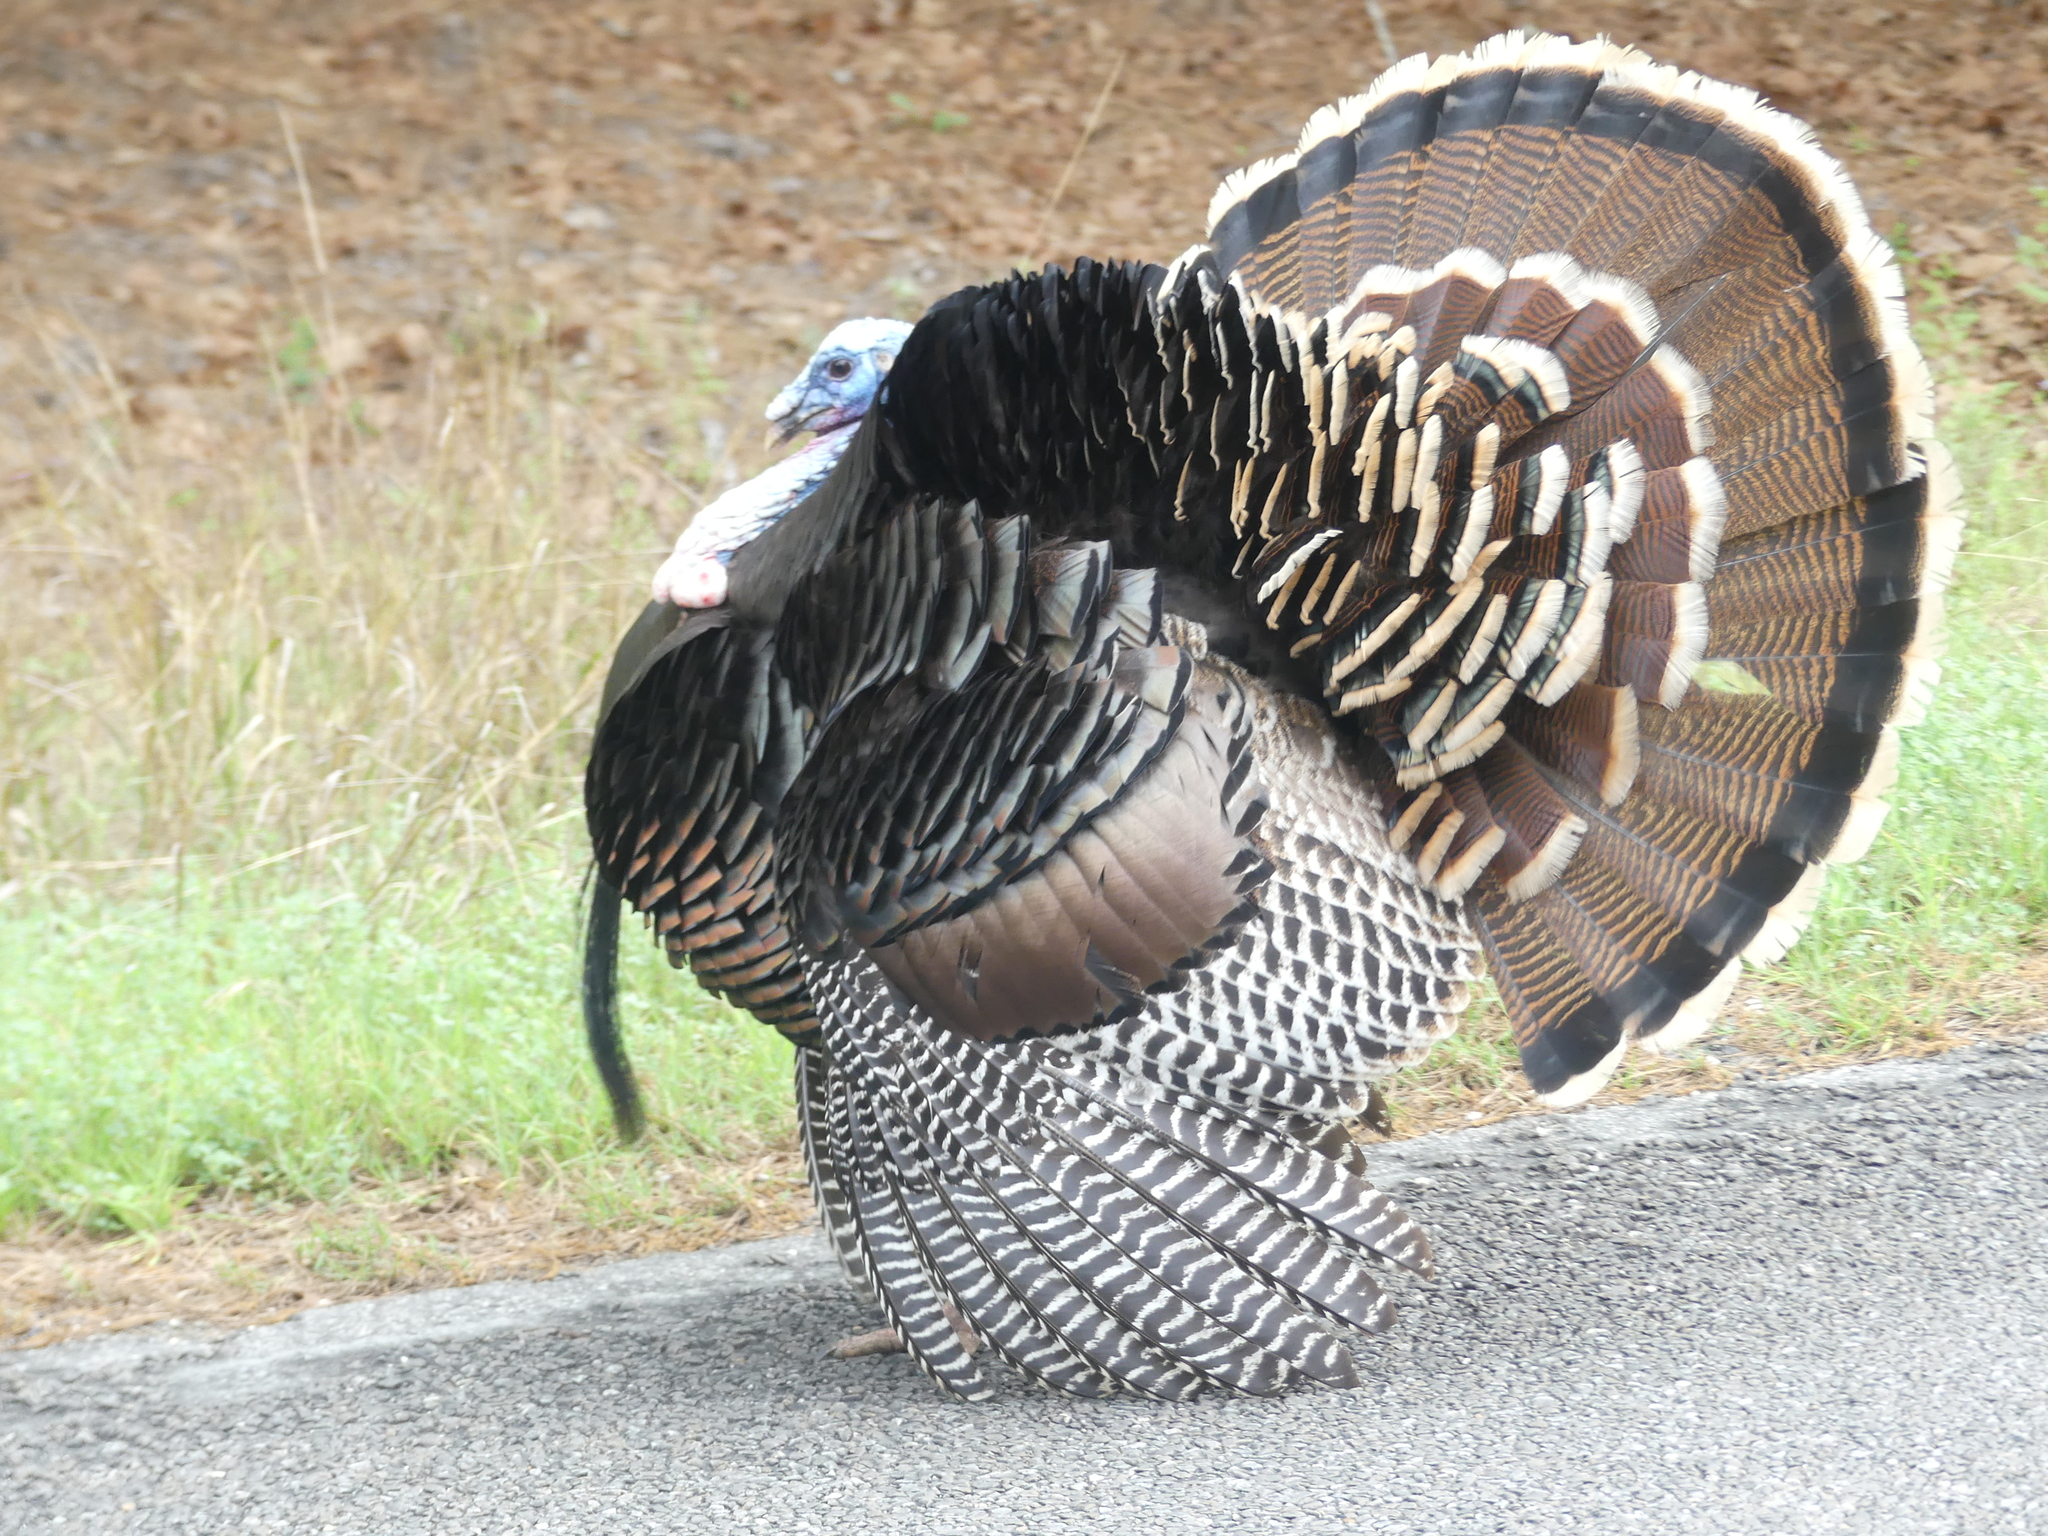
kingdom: Animalia
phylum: Chordata
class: Aves
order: Galliformes
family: Phasianidae
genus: Meleagris
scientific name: Meleagris gallopavo
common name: Wild turkey
